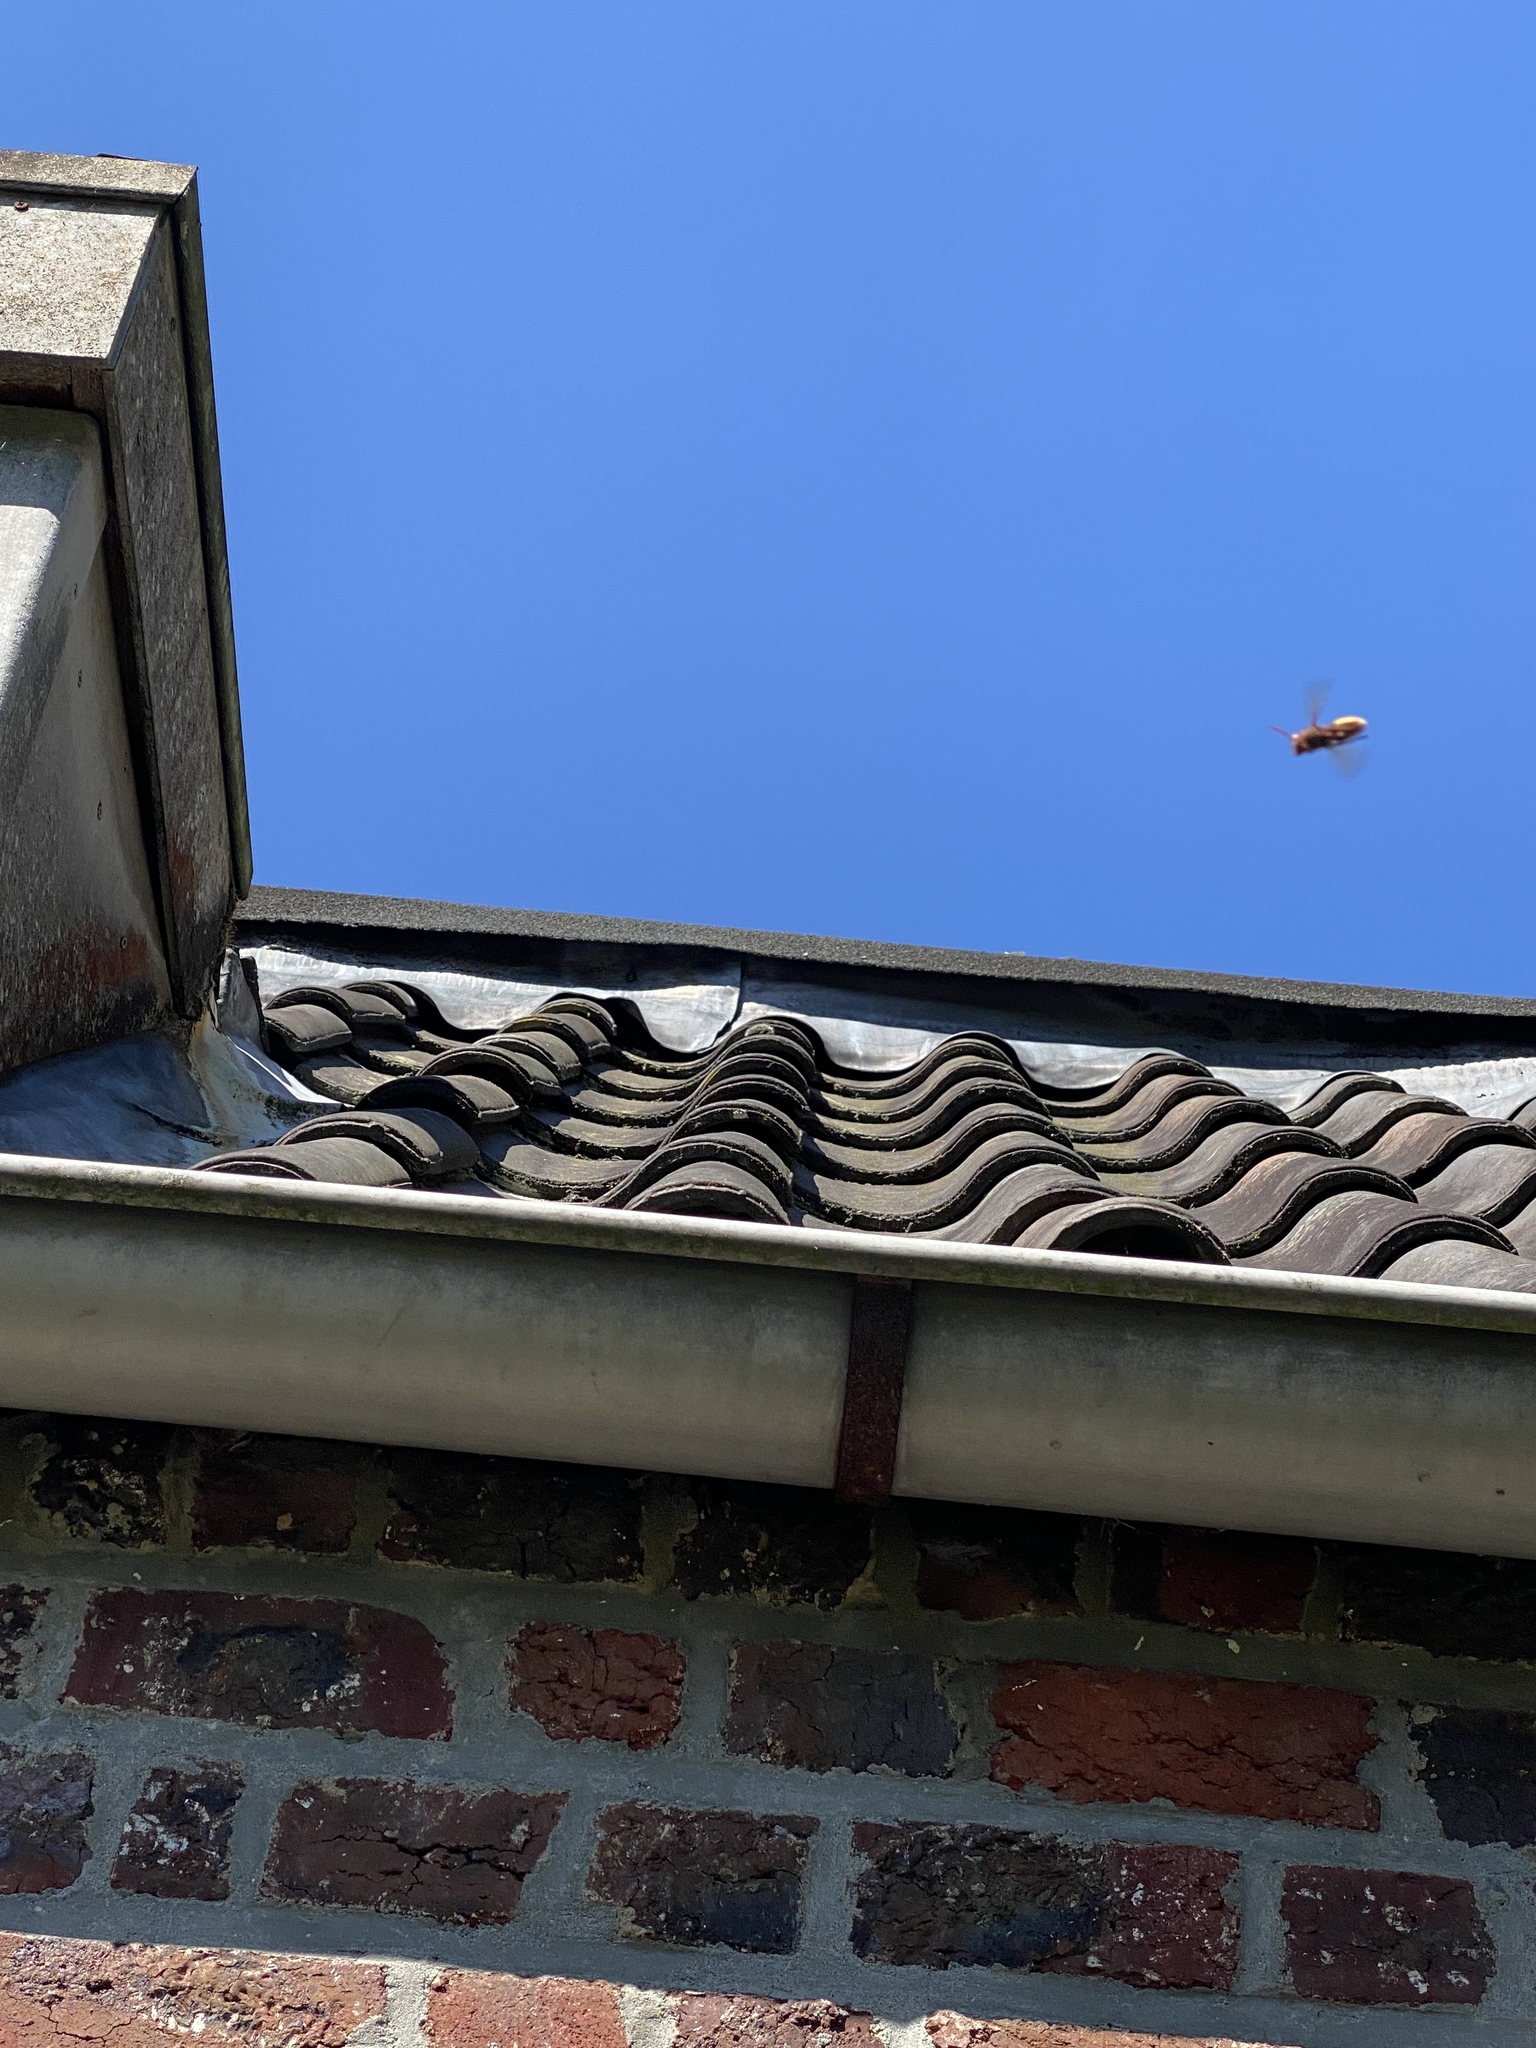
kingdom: Animalia
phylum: Arthropoda
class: Insecta
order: Hymenoptera
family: Vespidae
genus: Vespa
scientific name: Vespa crabro
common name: Hornet
